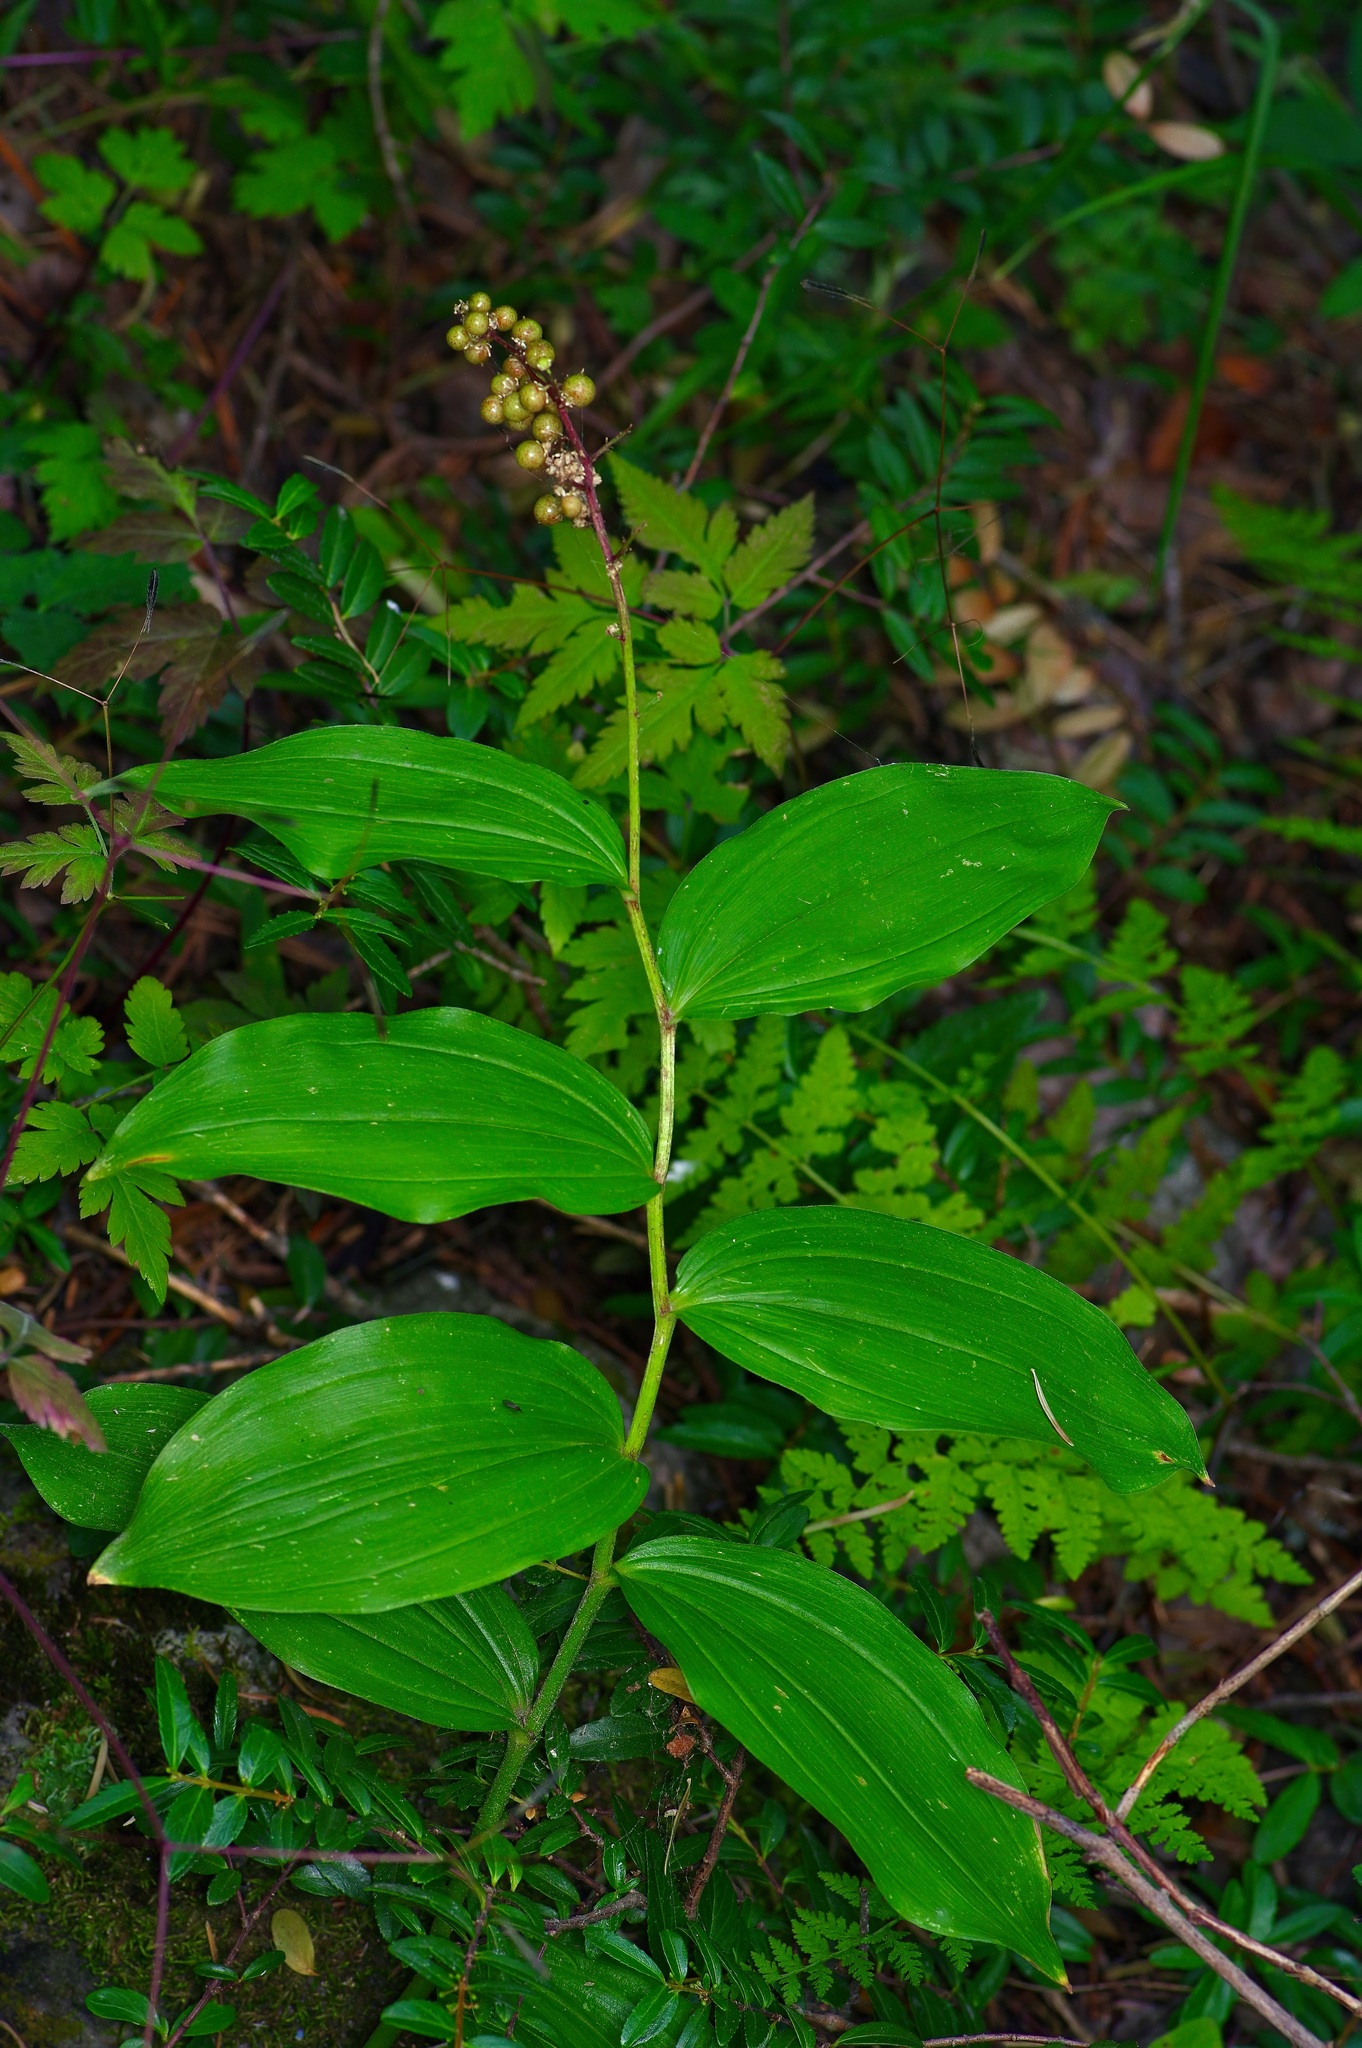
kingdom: Plantae
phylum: Tracheophyta
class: Liliopsida
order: Asparagales
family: Asparagaceae
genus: Maianthemum
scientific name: Maianthemum racemosum
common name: False spikenard
